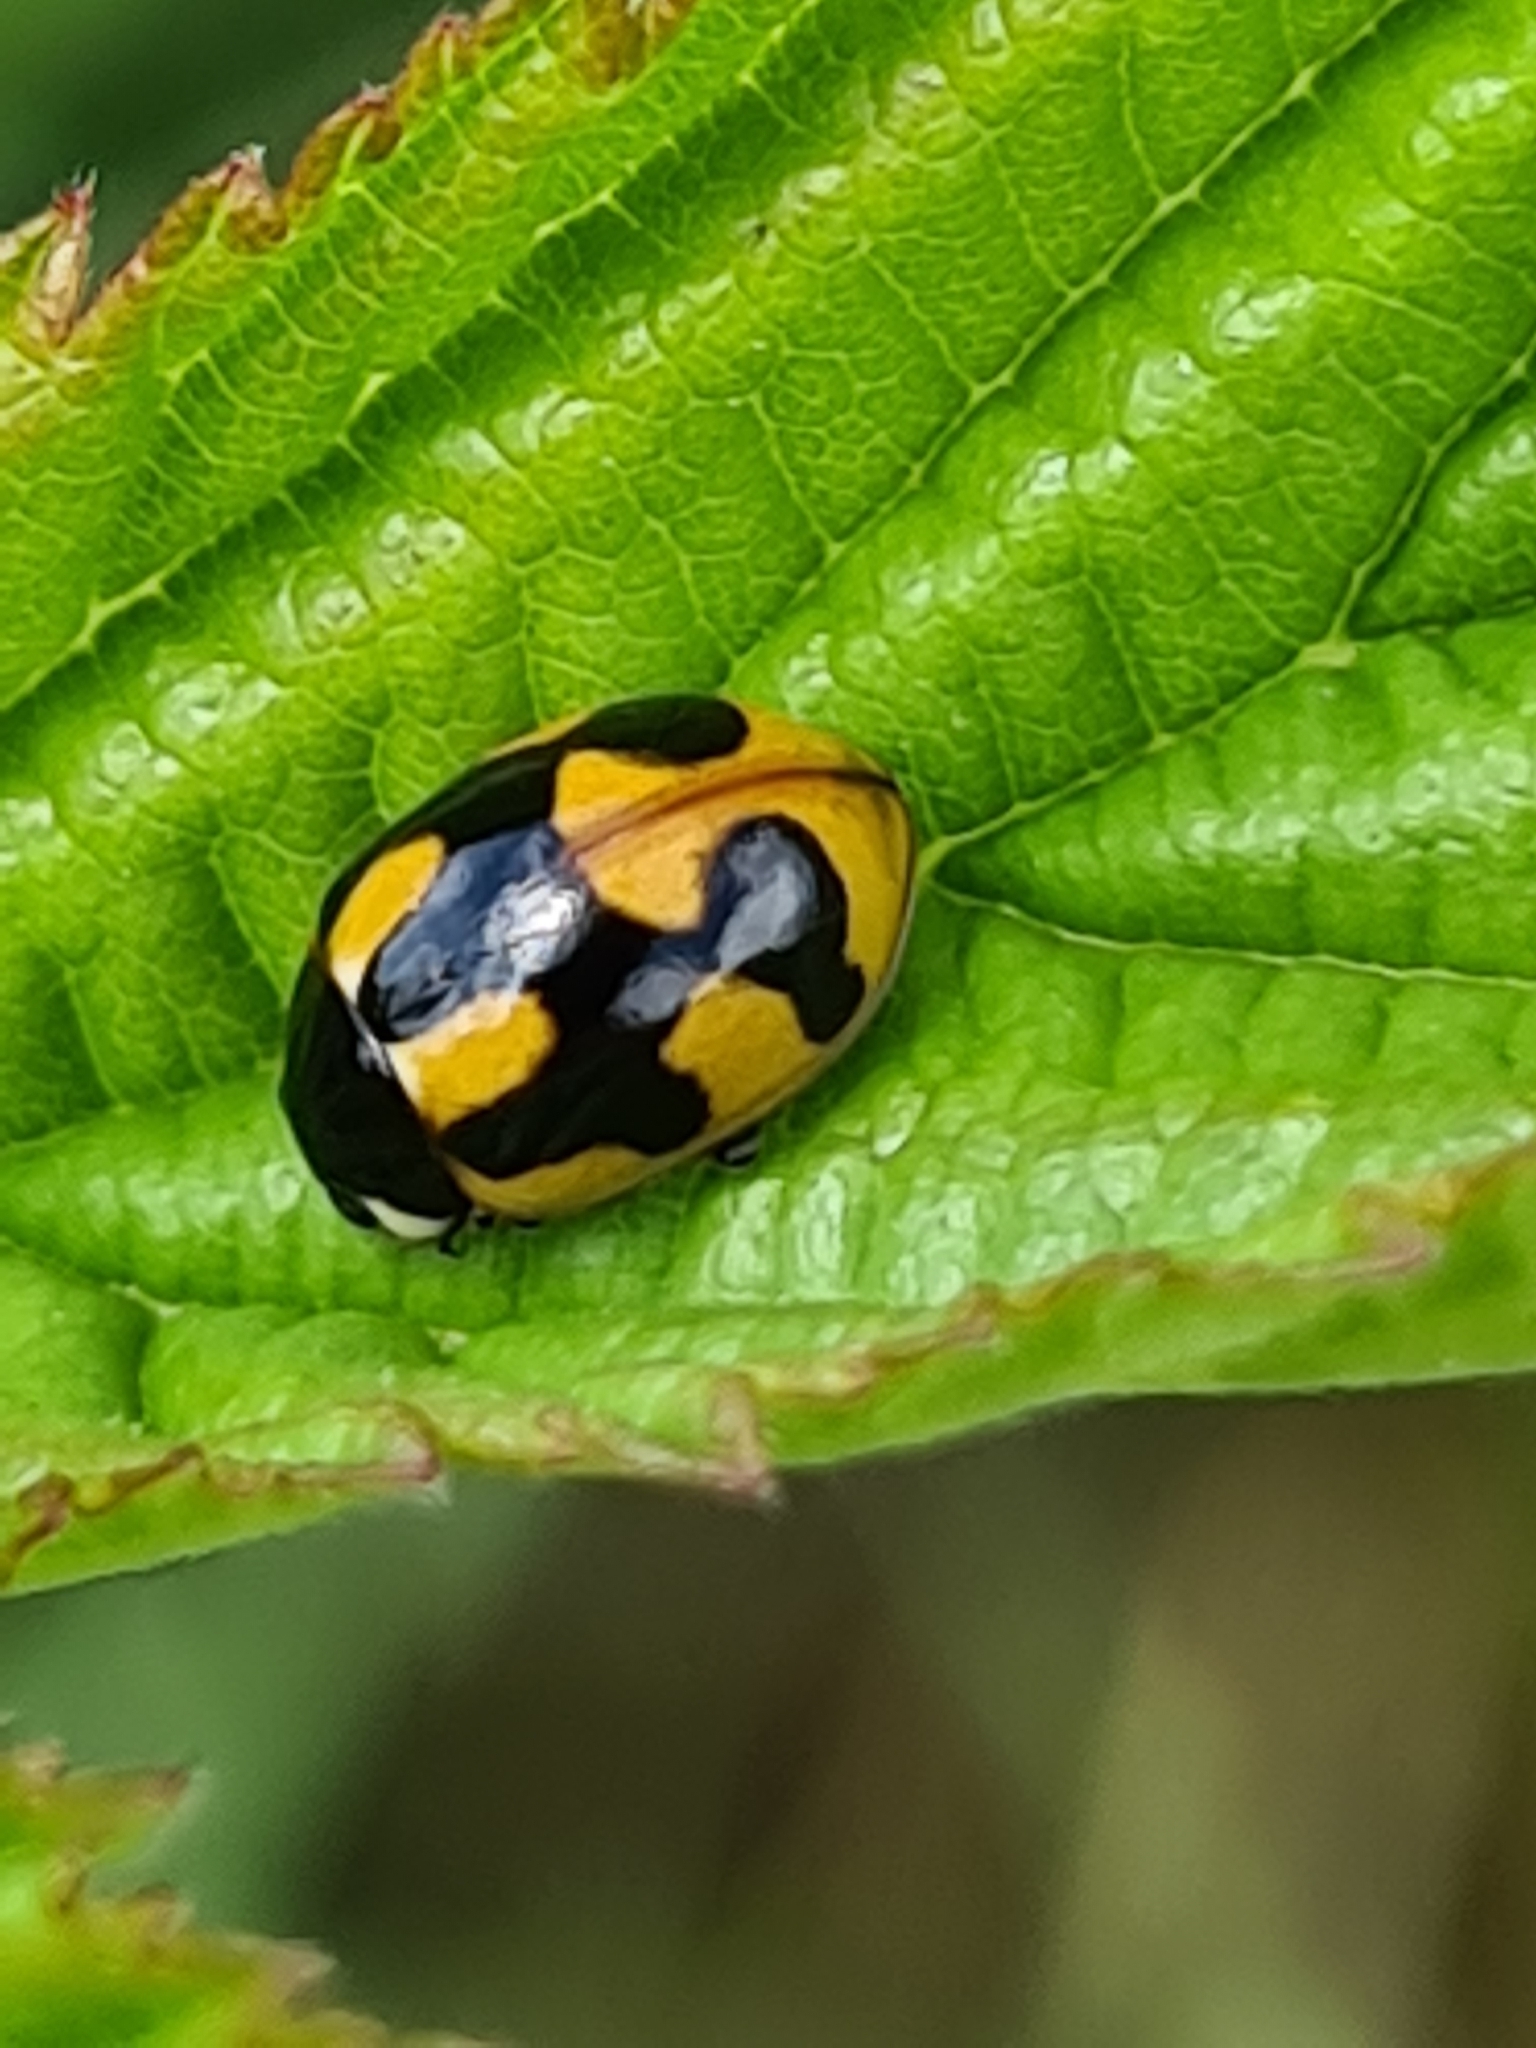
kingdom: Animalia
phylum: Arthropoda
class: Insecta
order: Coleoptera
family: Coccinellidae
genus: Coccinella
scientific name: Coccinella hieroglyphica
